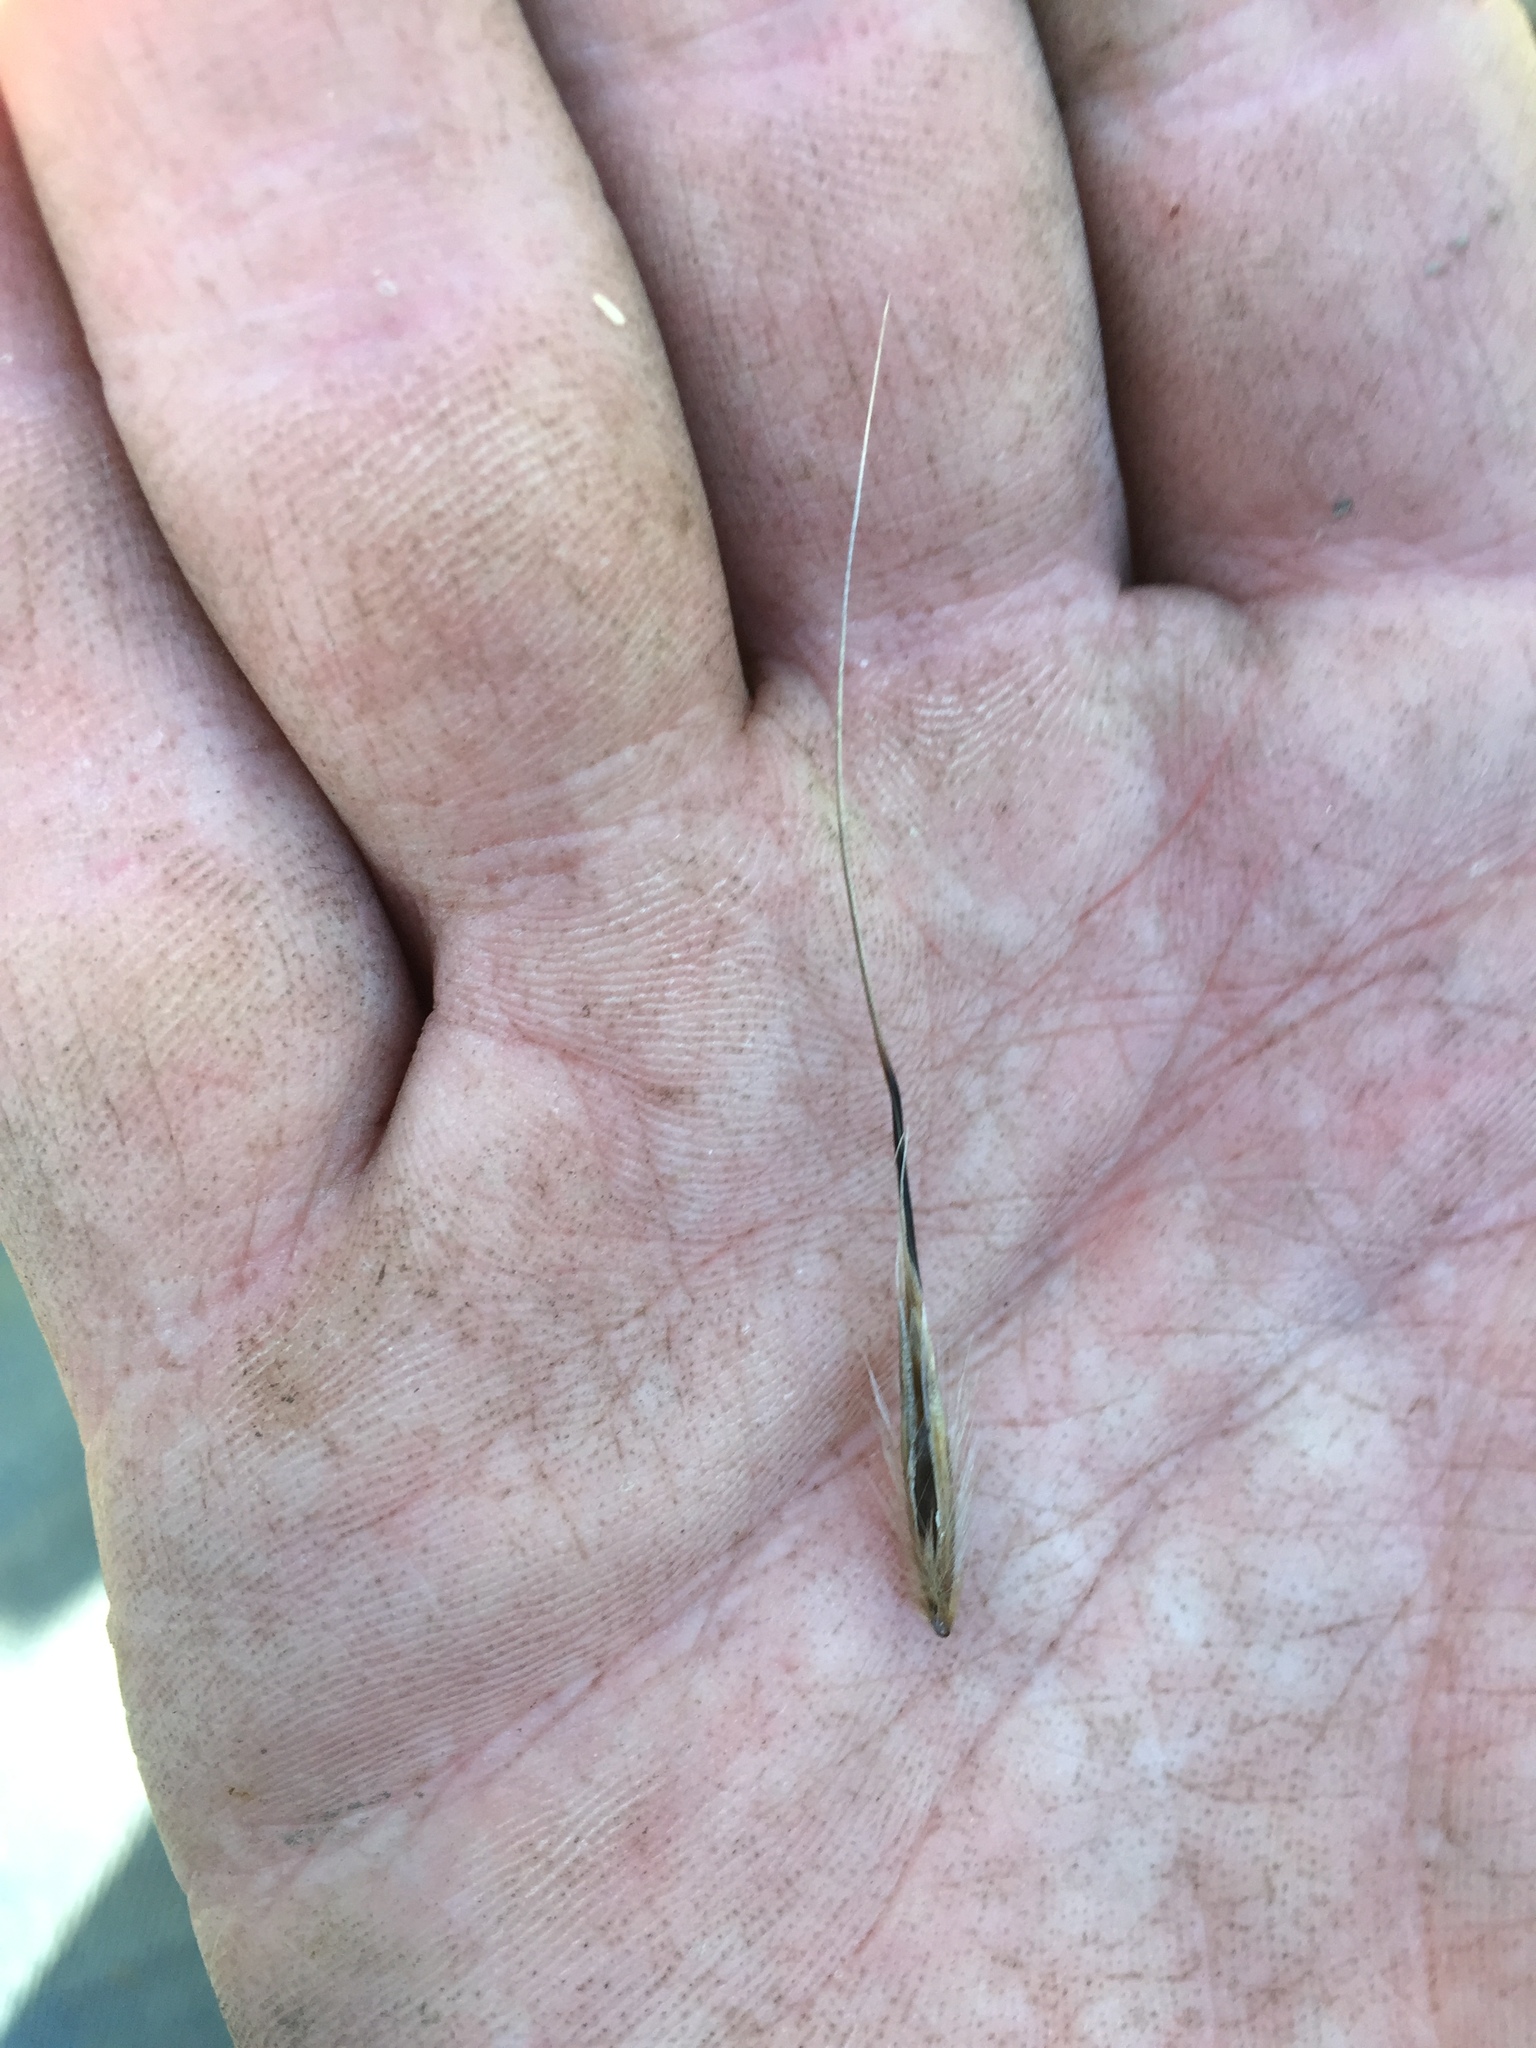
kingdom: Plantae
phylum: Tracheophyta
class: Liliopsida
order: Poales
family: Poaceae
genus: Avena
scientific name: Avena barbata
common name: Slender oat
